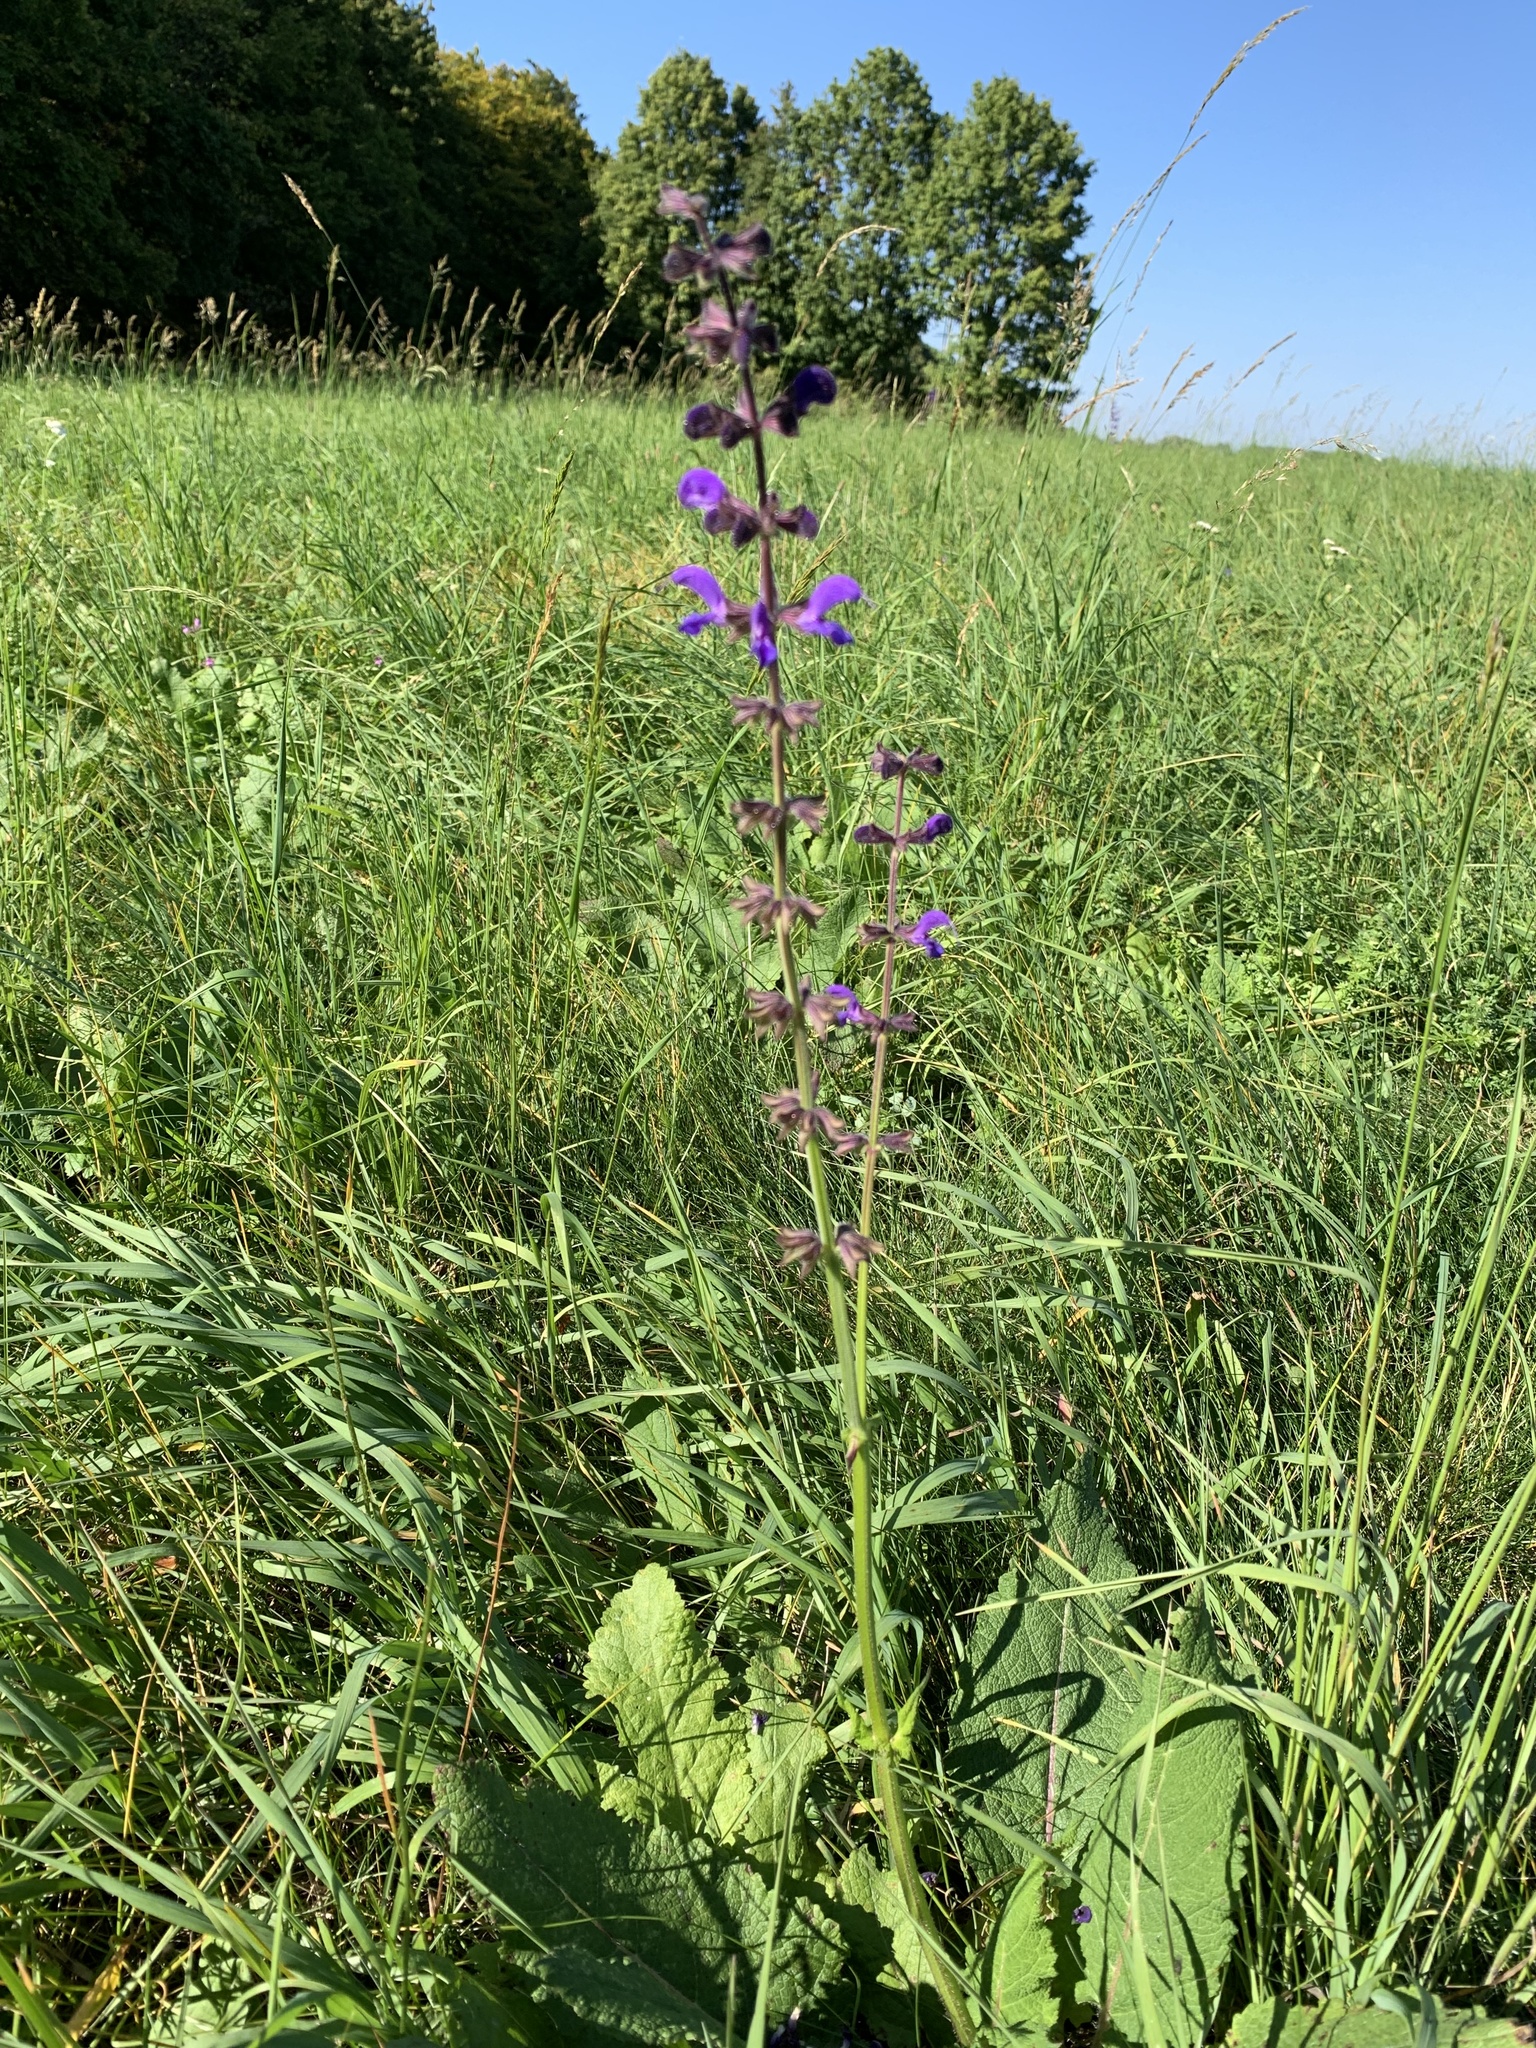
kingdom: Plantae
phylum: Tracheophyta
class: Magnoliopsida
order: Lamiales
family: Lamiaceae
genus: Salvia
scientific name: Salvia pratensis
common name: Meadow sage
